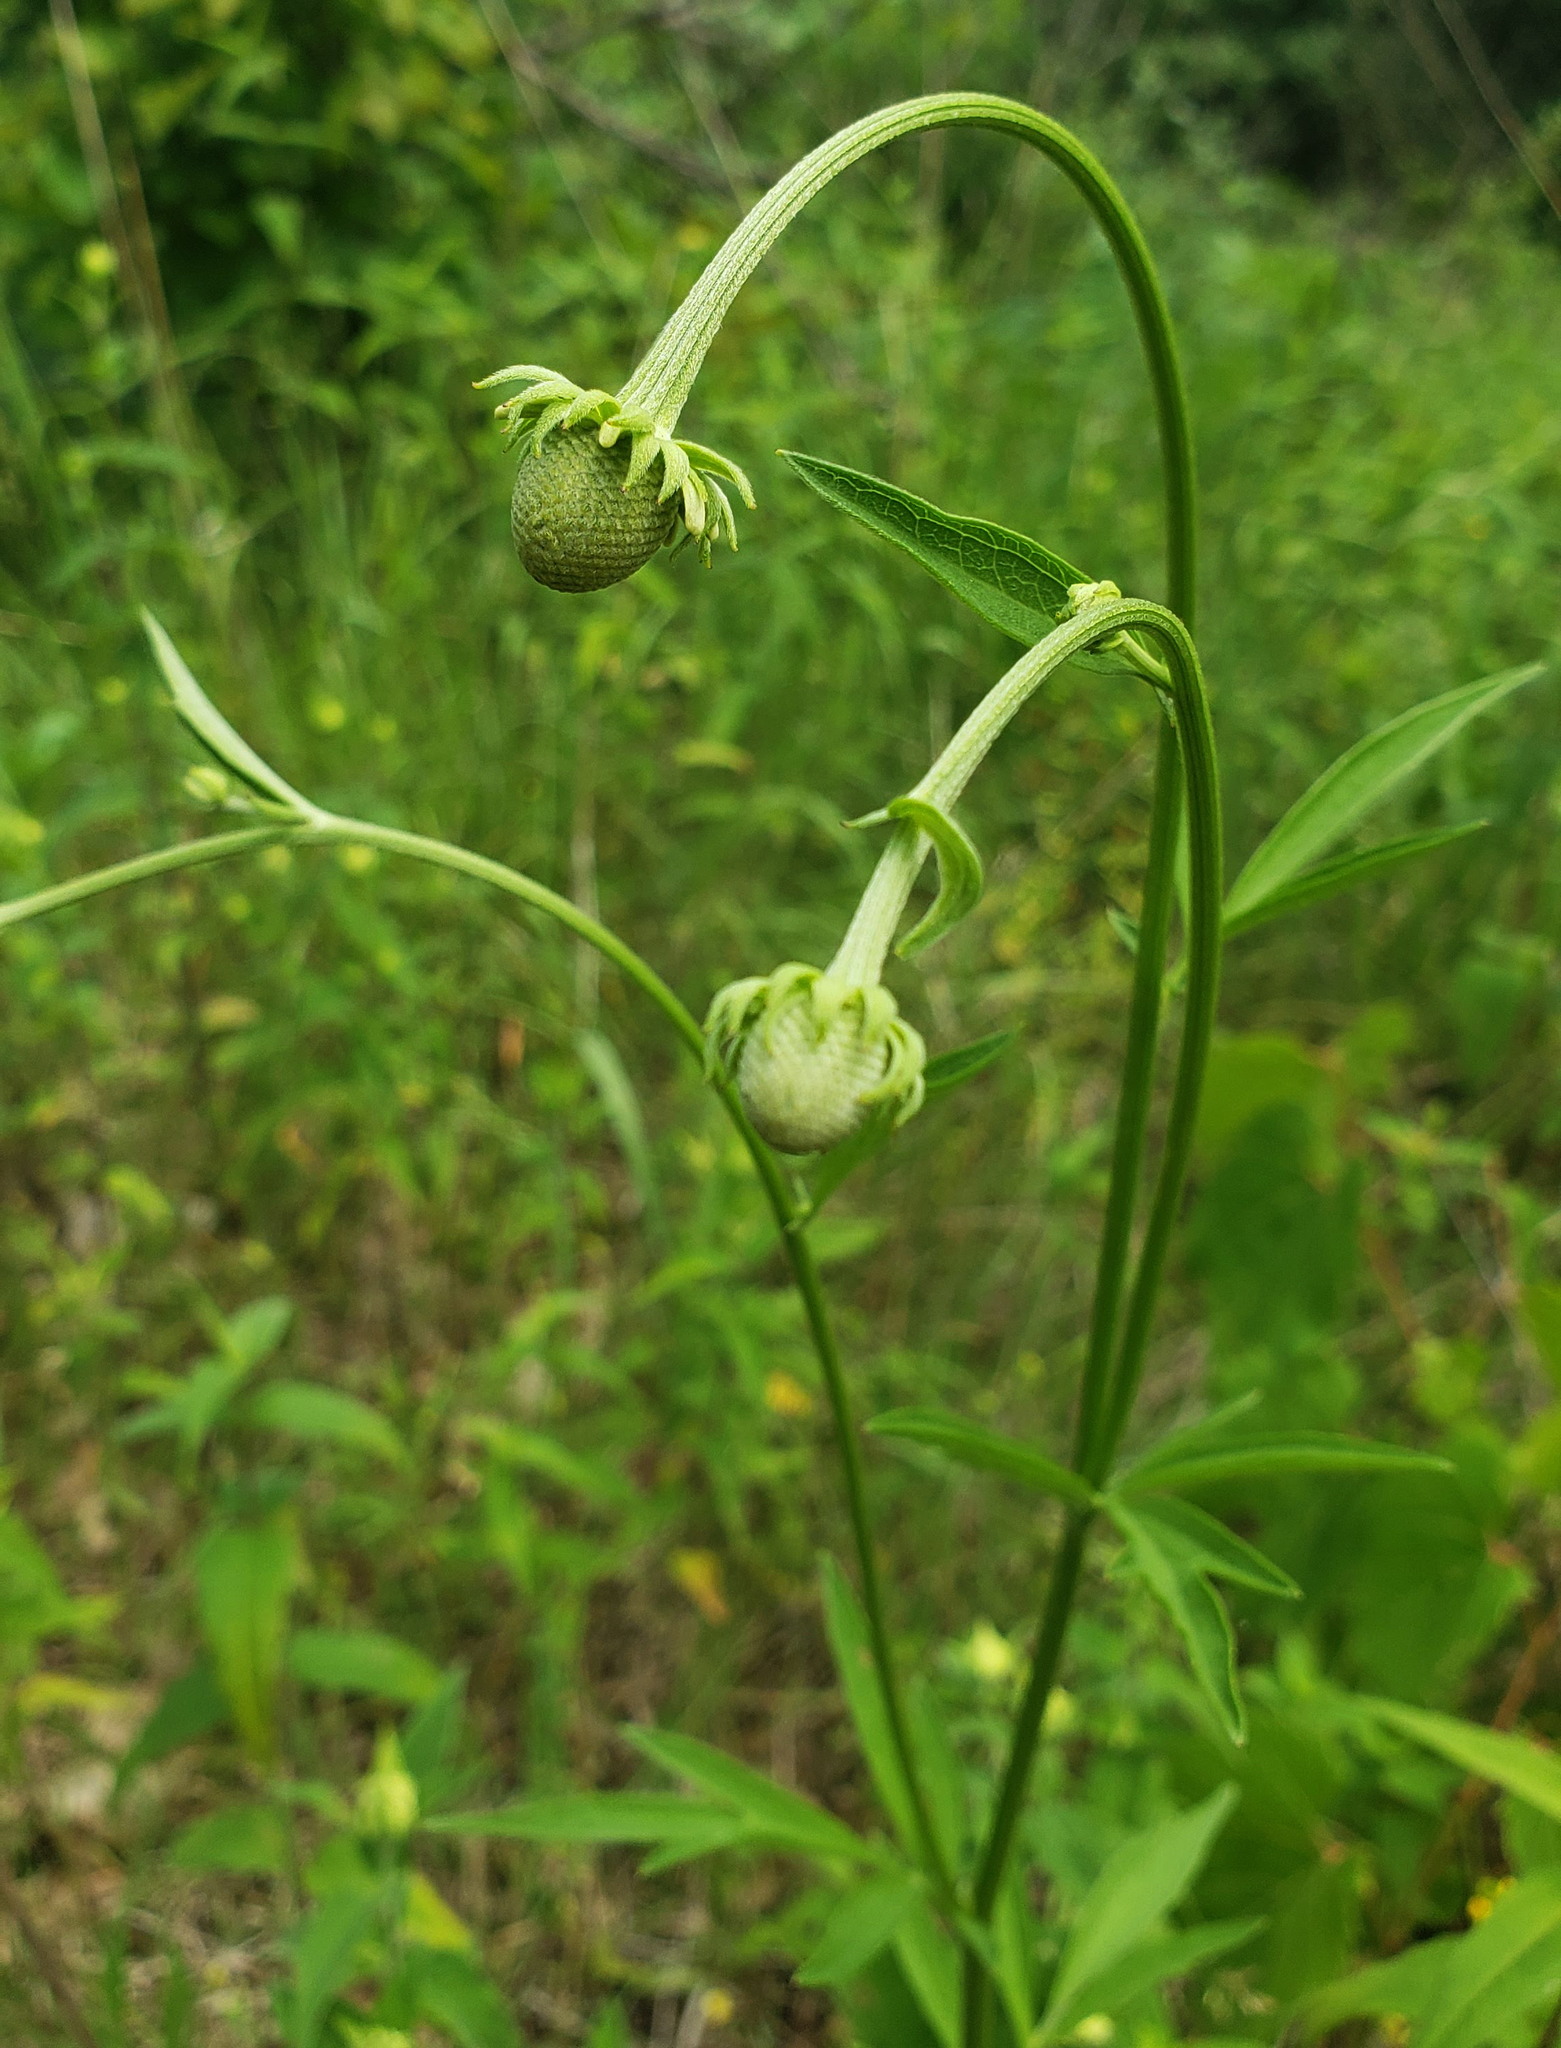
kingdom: Plantae
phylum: Tracheophyta
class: Magnoliopsida
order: Asterales
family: Asteraceae
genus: Ratibida
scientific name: Ratibida pinnata
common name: Drooping prairie-coneflower
